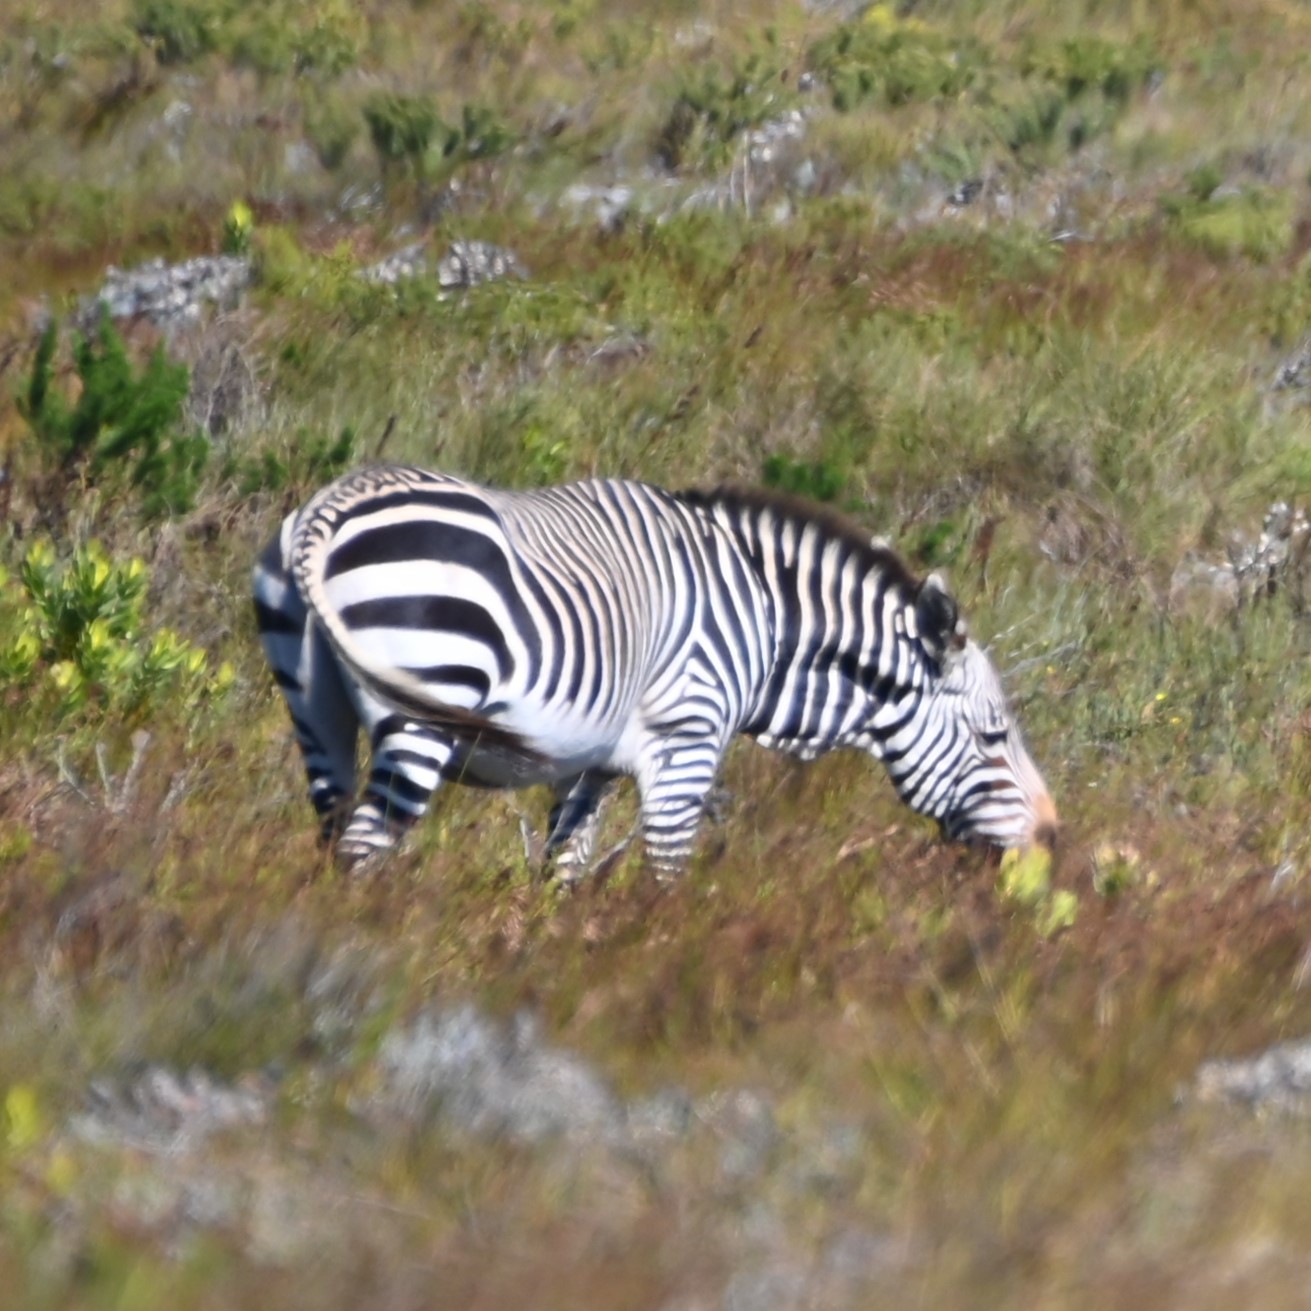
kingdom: Animalia
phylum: Chordata
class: Mammalia
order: Perissodactyla
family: Equidae
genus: Equus
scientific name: Equus zebra
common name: Mountain zebra
